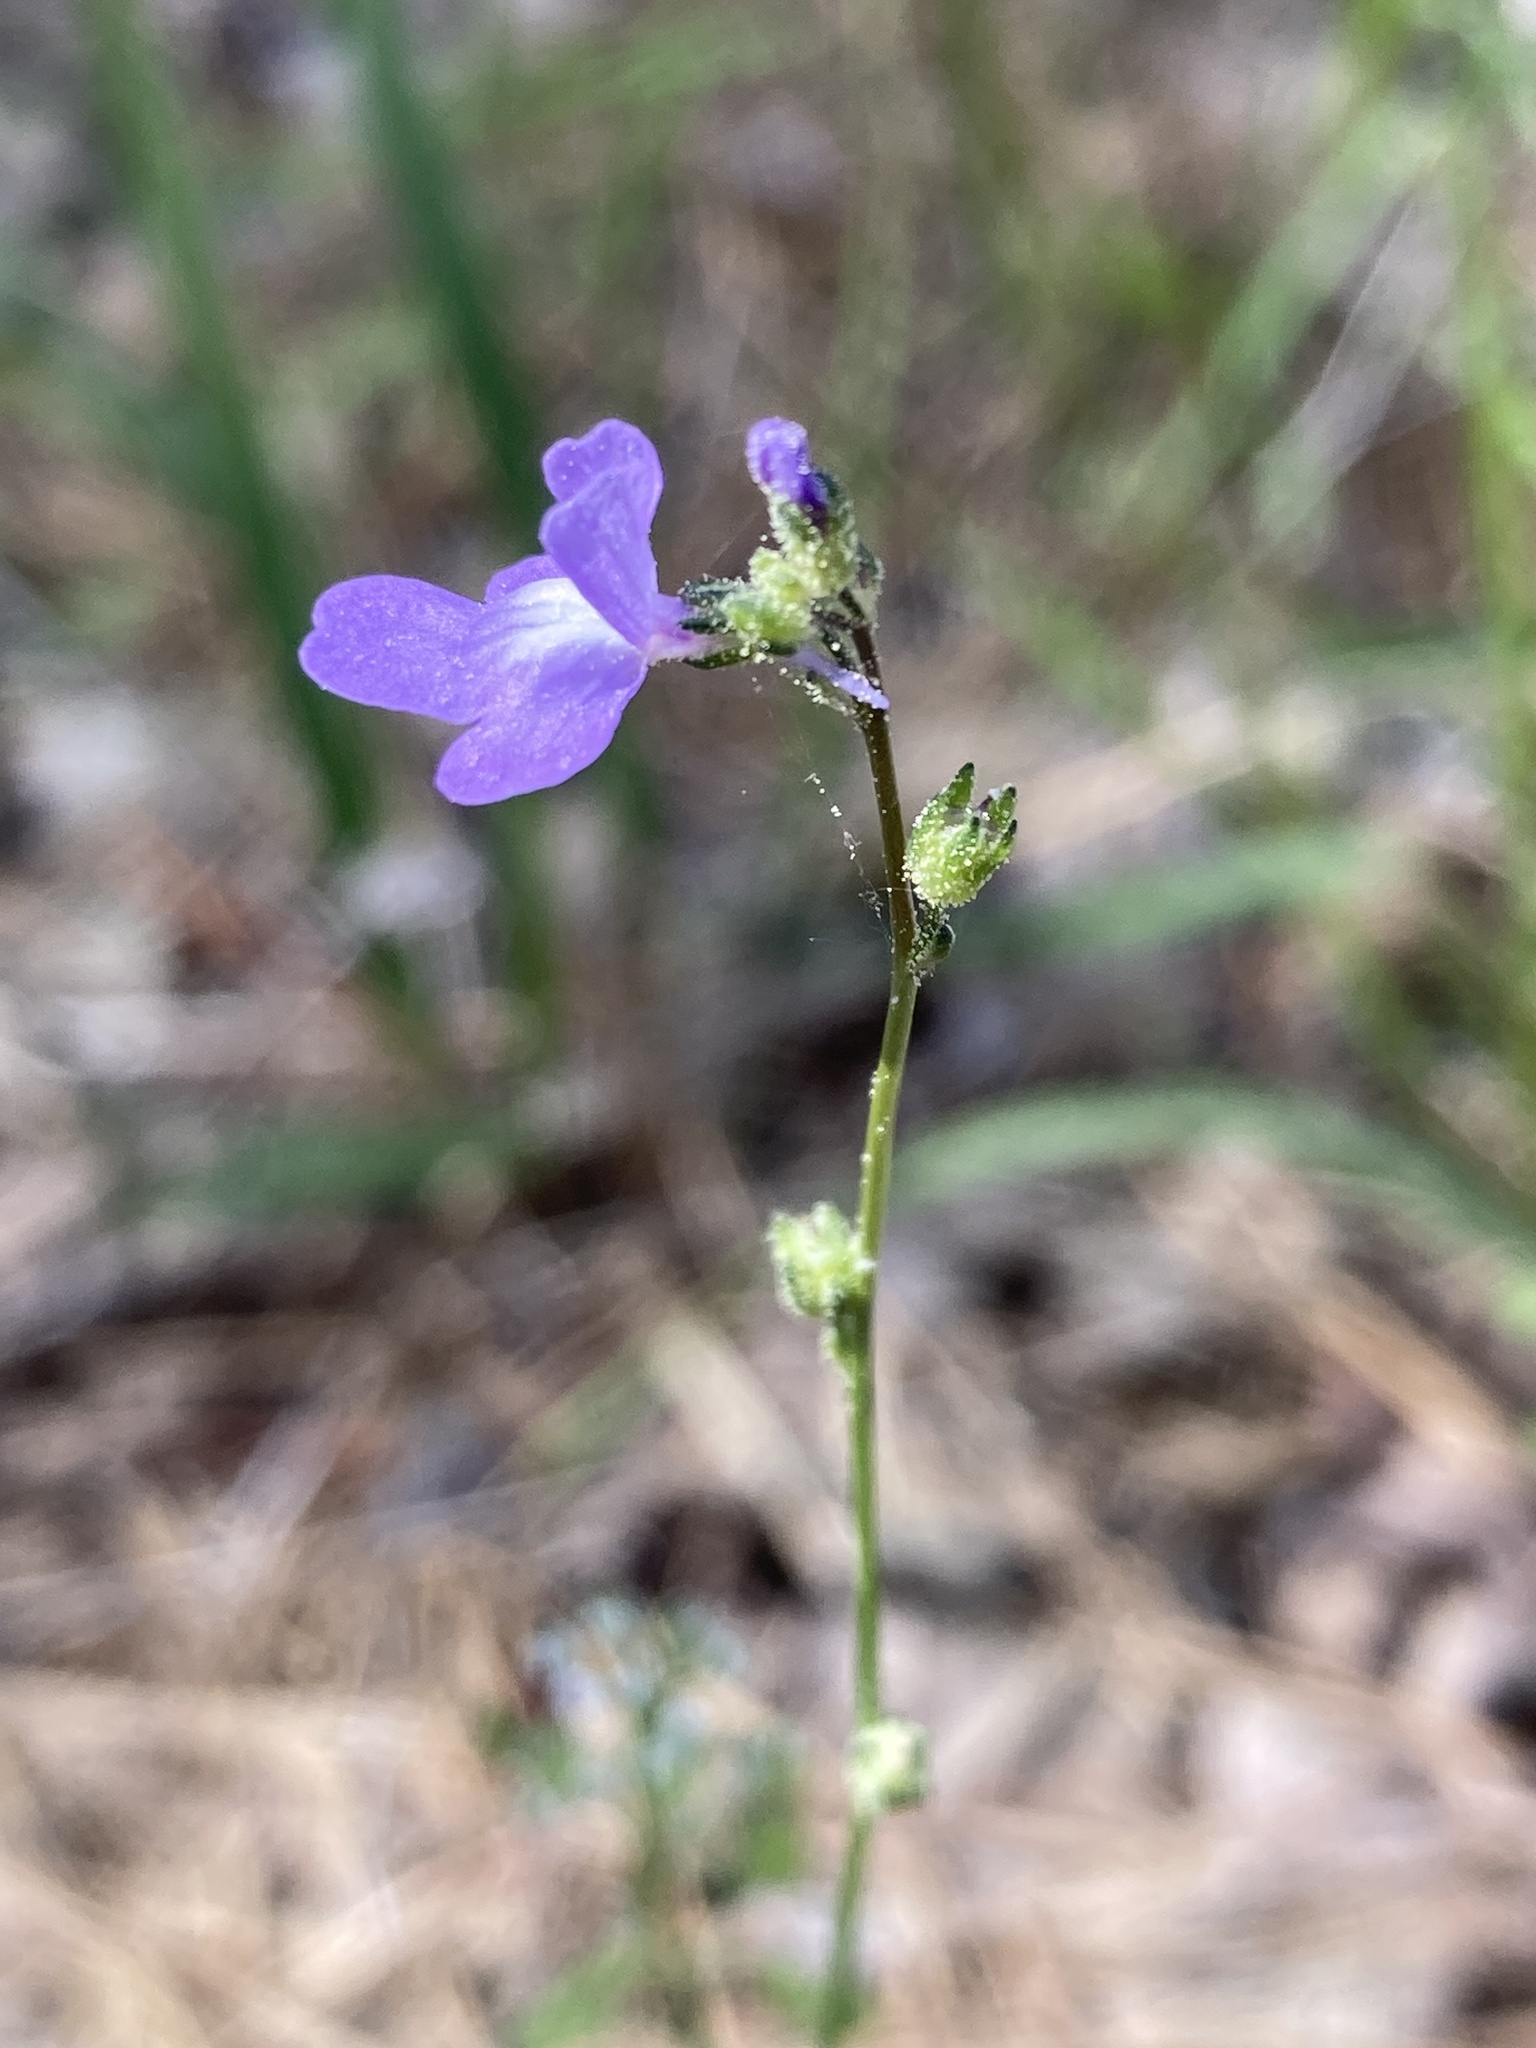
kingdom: Plantae
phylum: Tracheophyta
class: Magnoliopsida
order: Lamiales
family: Plantaginaceae
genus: Nuttallanthus
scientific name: Nuttallanthus canadensis
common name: Blue toadflax
